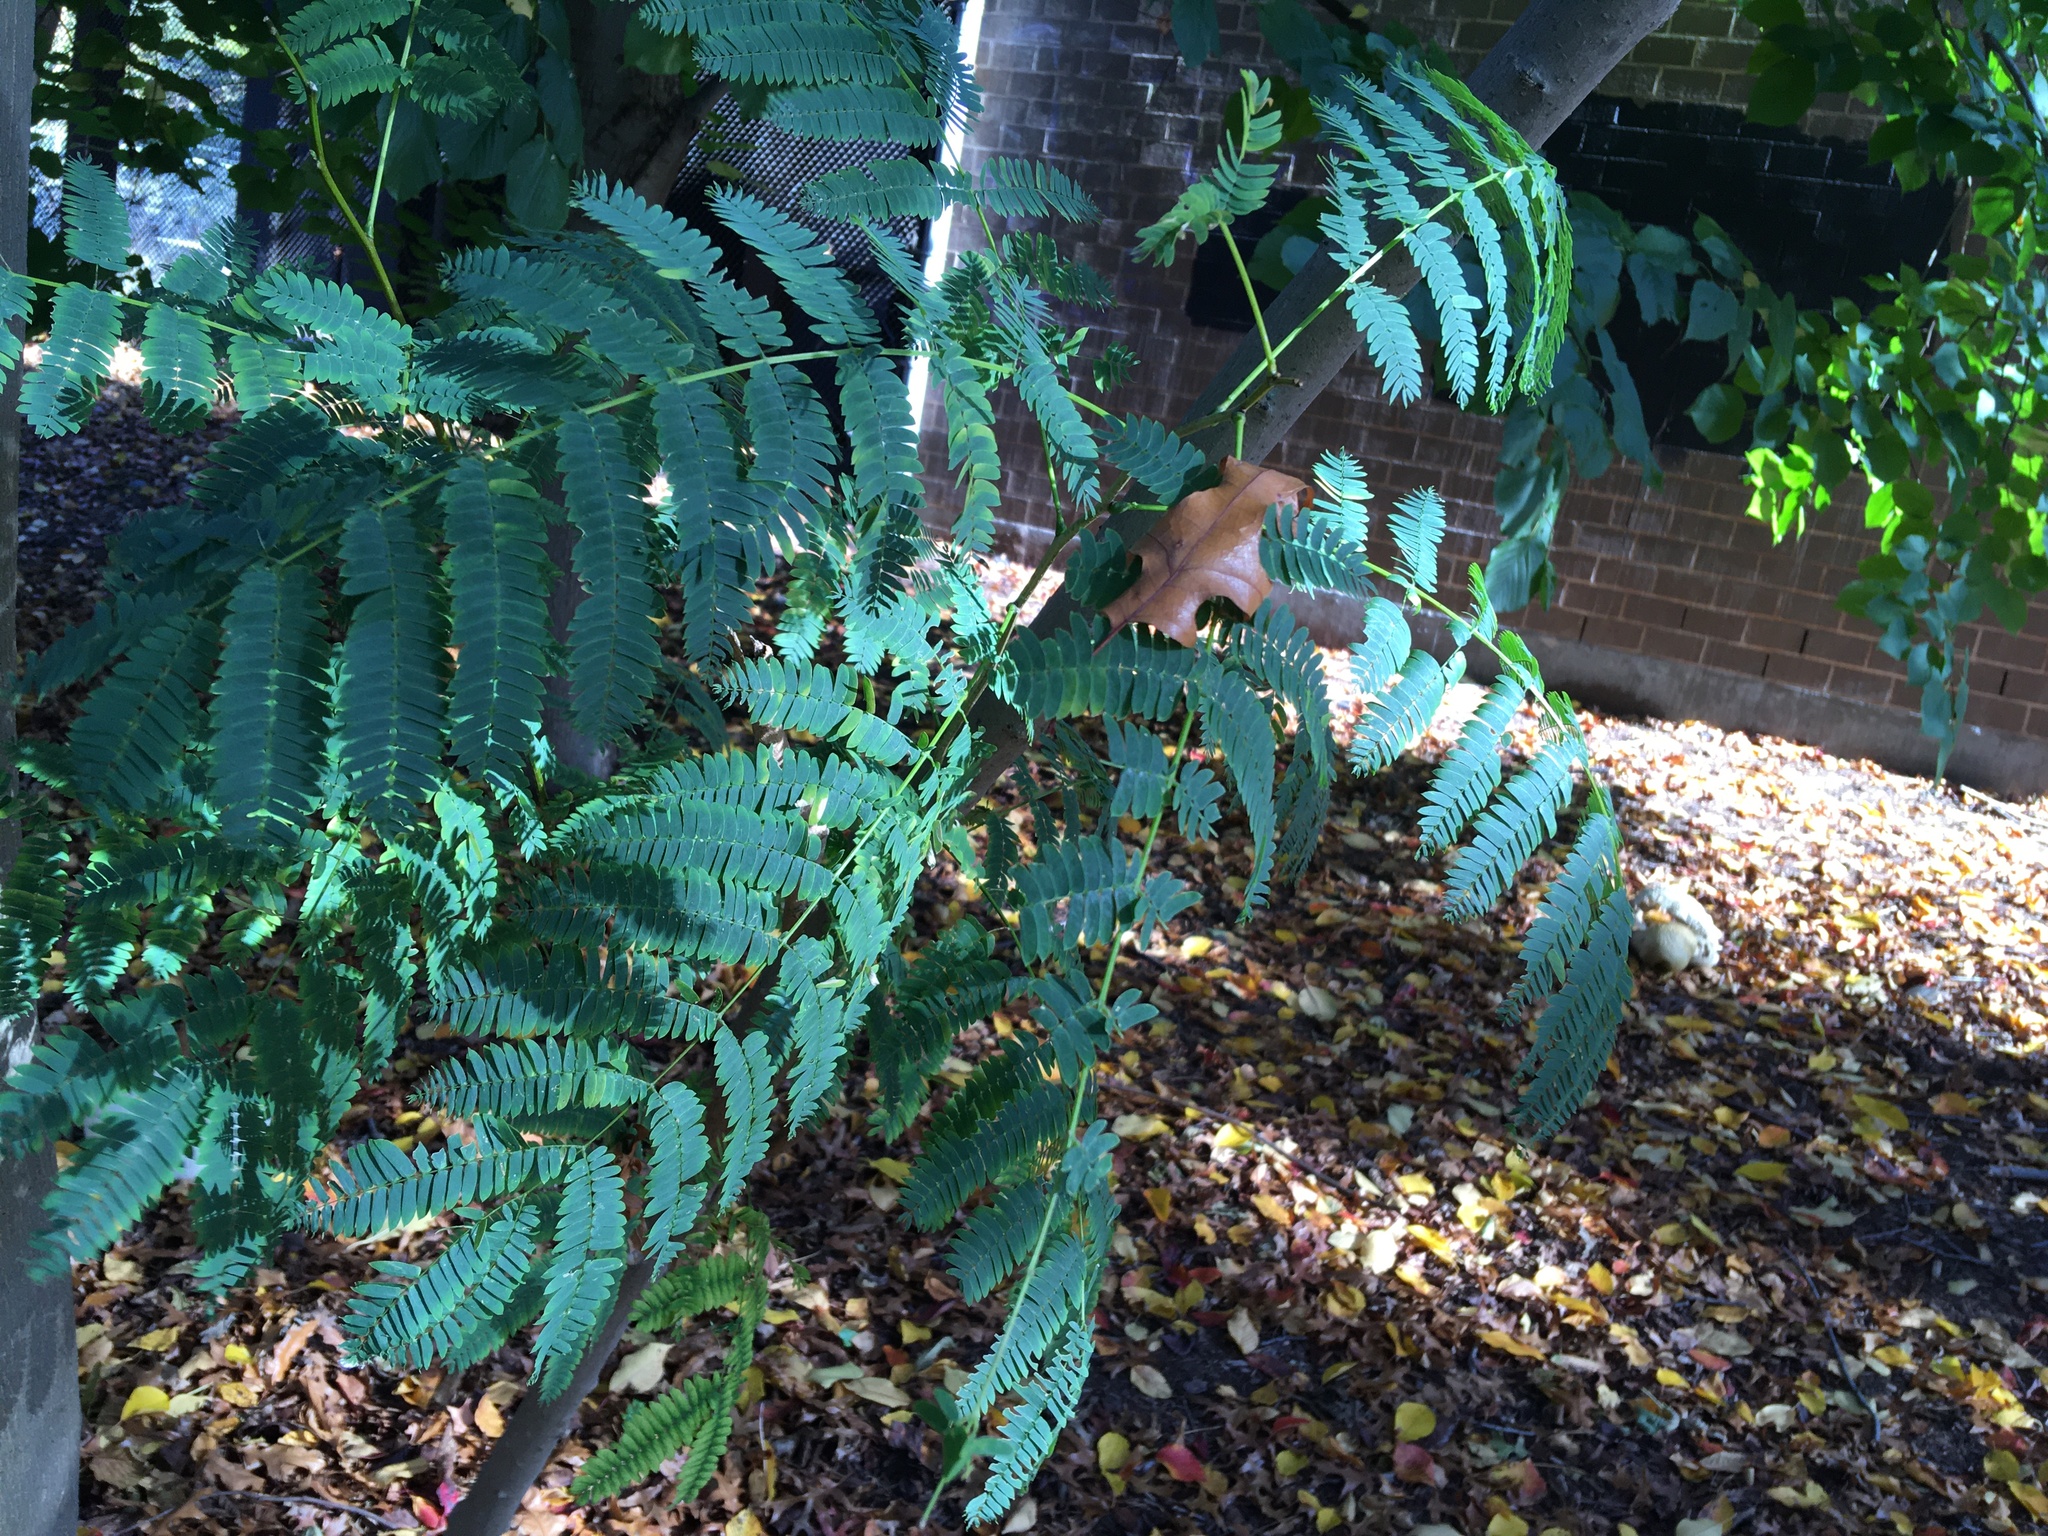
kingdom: Plantae
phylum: Tracheophyta
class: Magnoliopsida
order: Fabales
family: Fabaceae
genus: Albizia
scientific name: Albizia julibrissin
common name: Silktree
